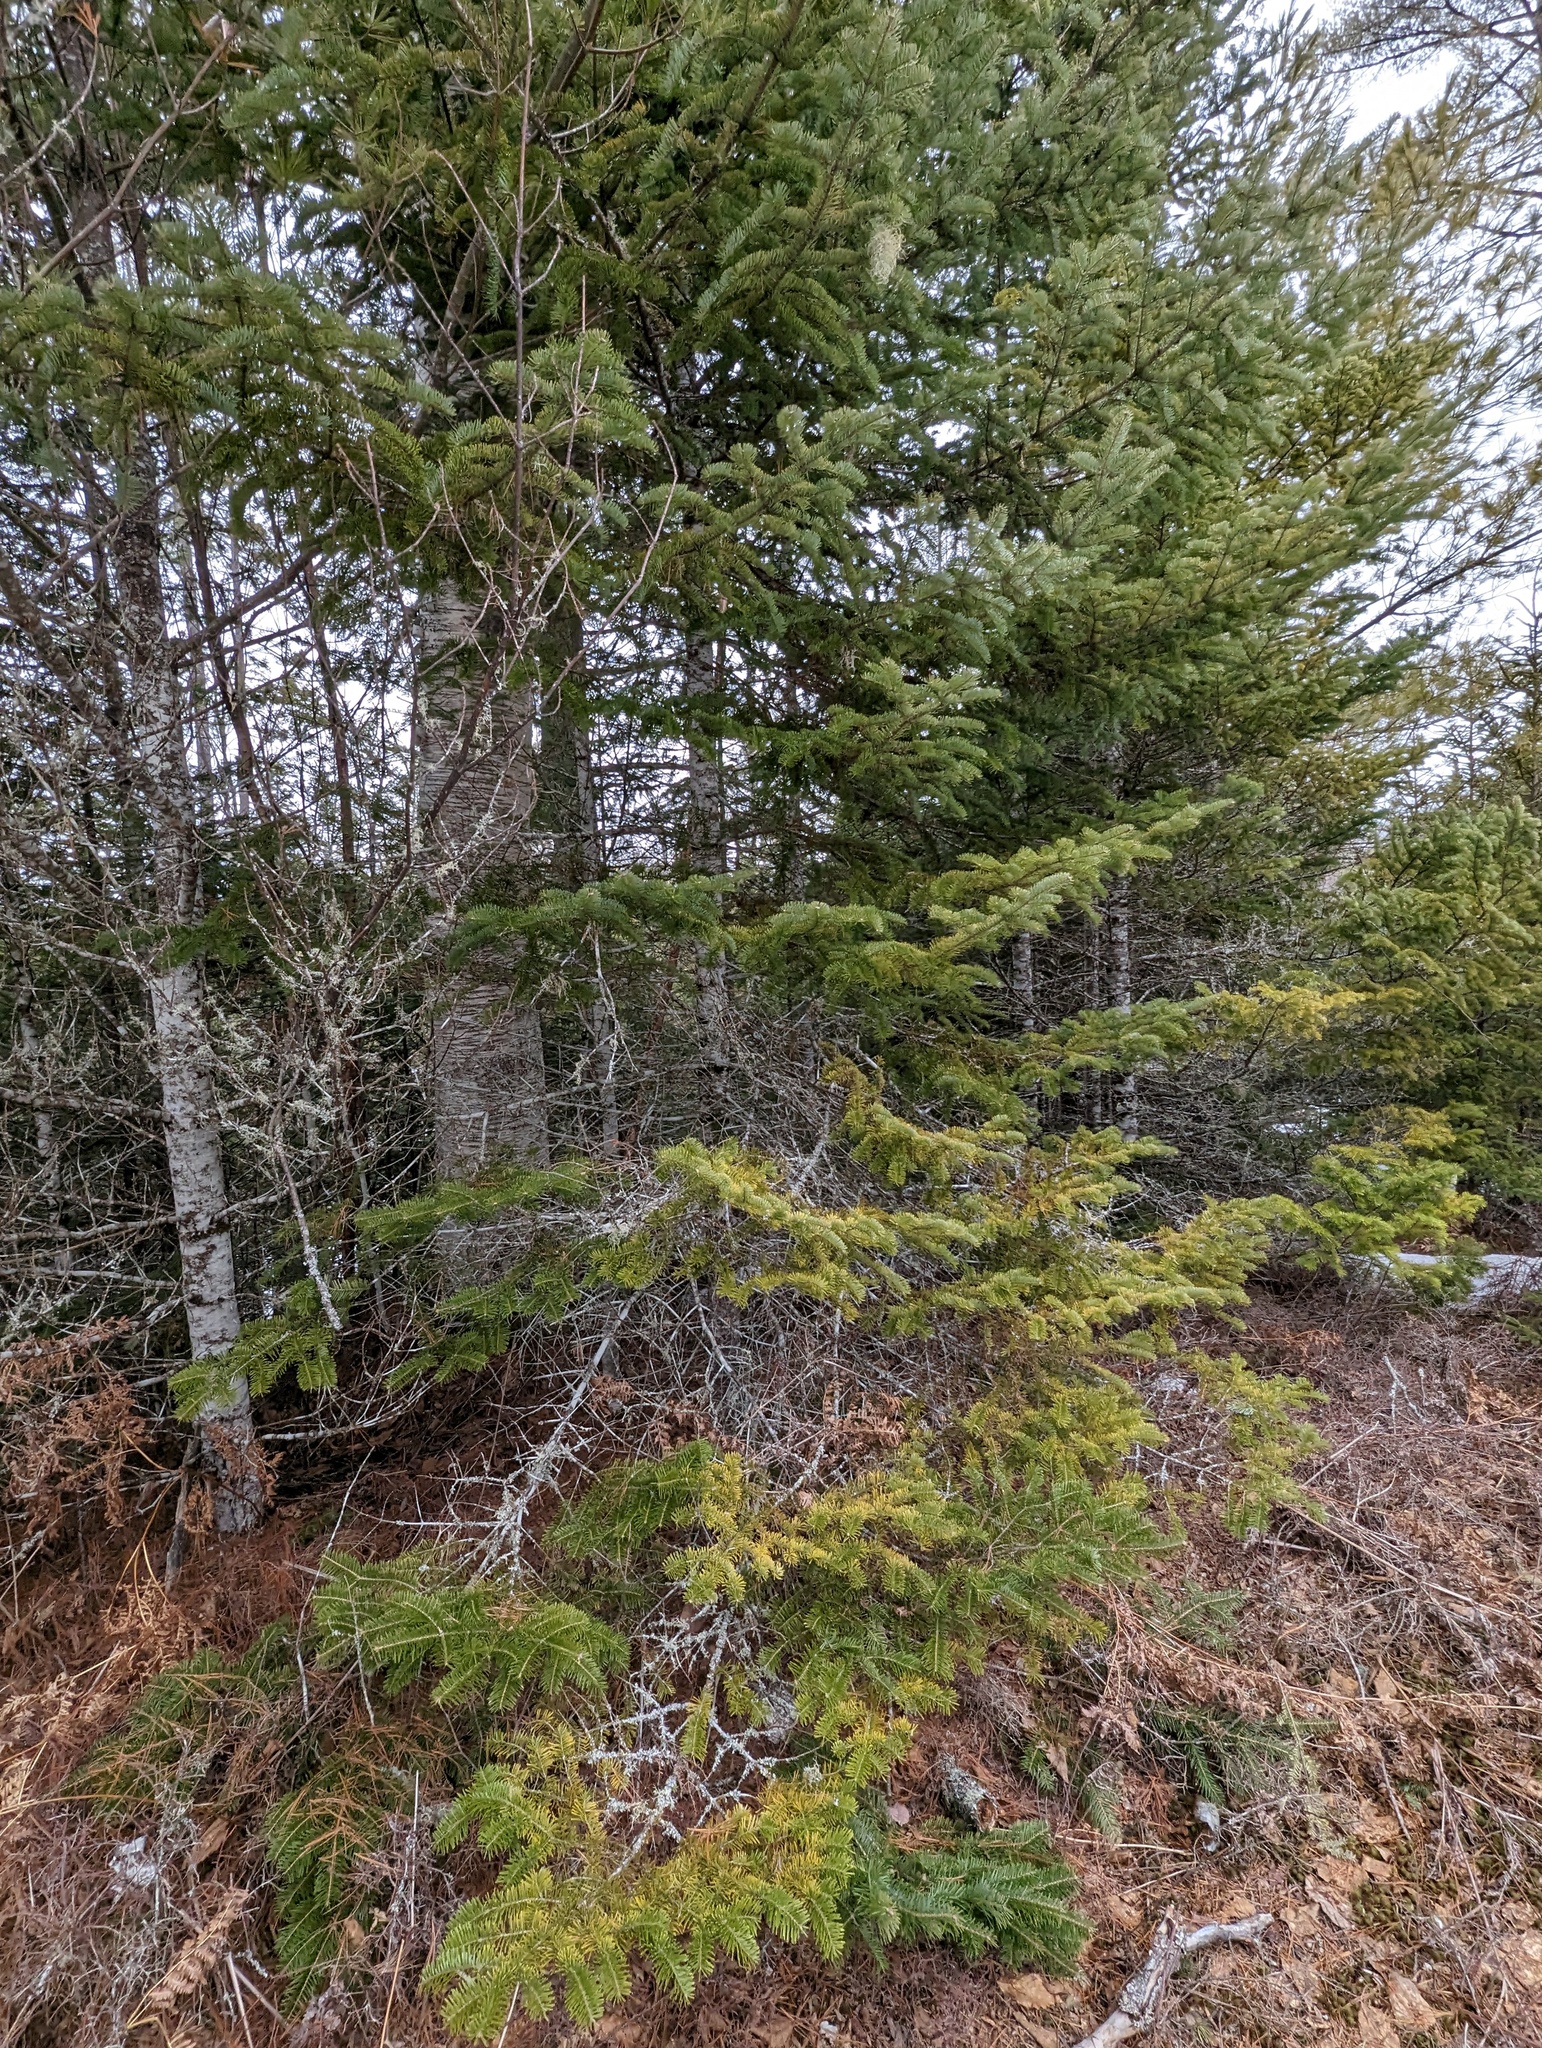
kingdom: Plantae
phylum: Tracheophyta
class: Pinopsida
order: Pinales
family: Pinaceae
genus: Abies
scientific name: Abies balsamea
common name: Balsam fir
